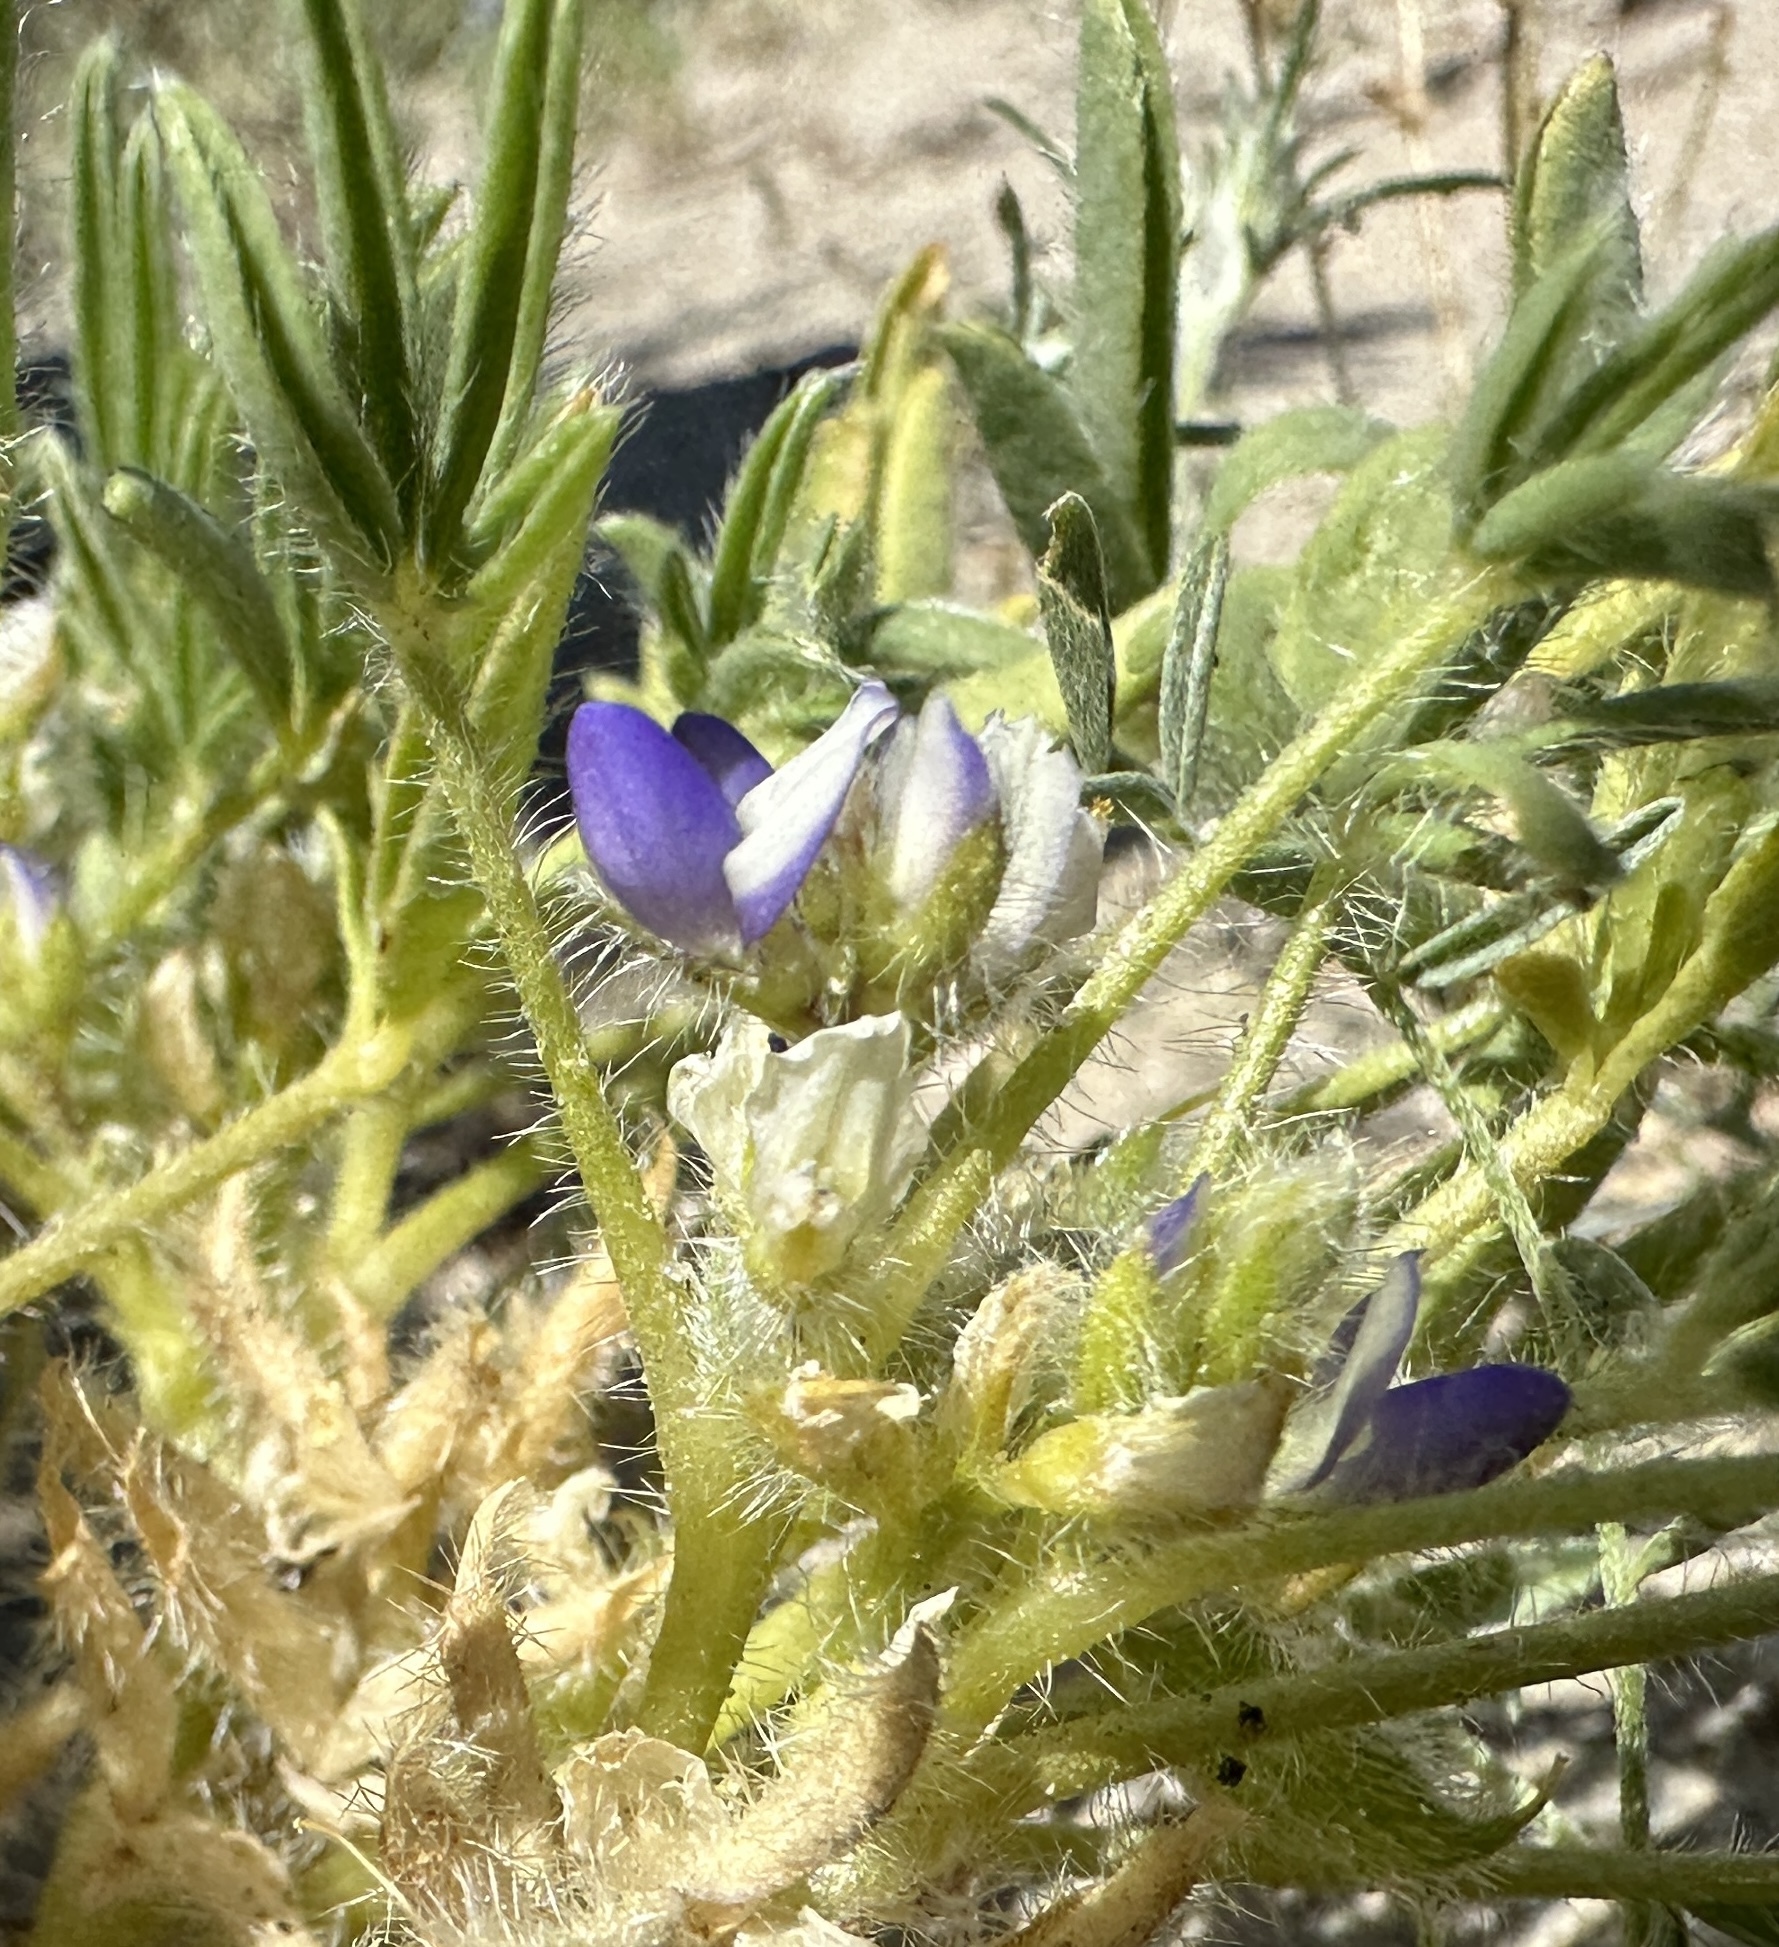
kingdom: Plantae
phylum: Tracheophyta
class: Magnoliopsida
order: Fabales
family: Fabaceae
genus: Lupinus
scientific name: Lupinus pusillus
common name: Low lupine
